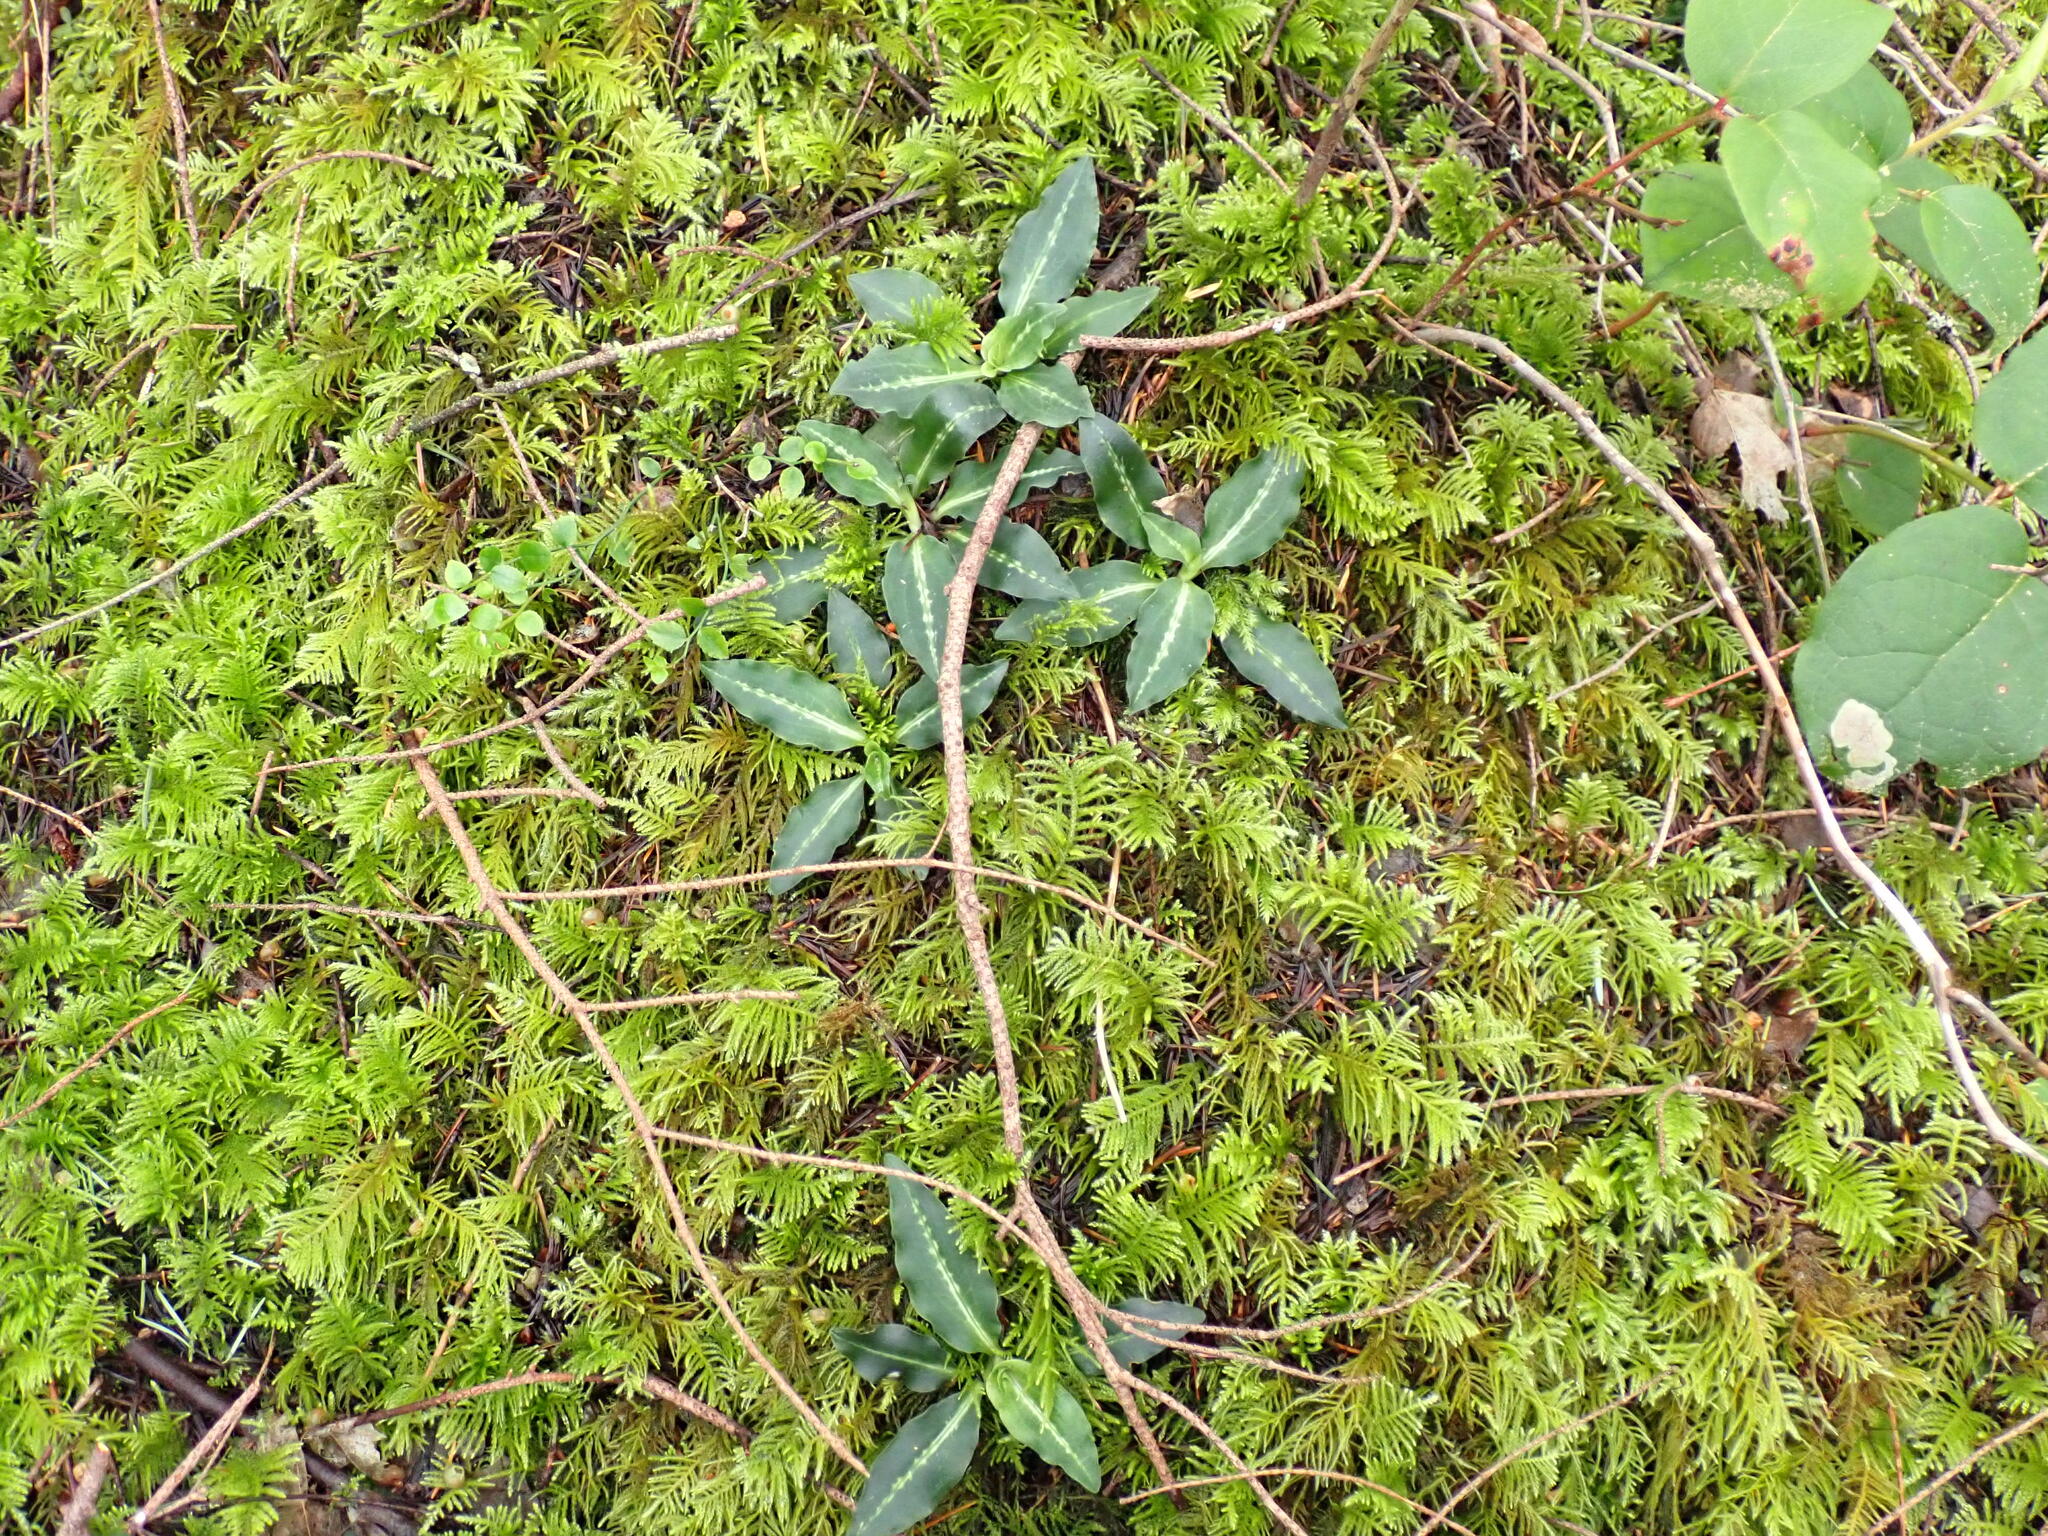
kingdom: Plantae
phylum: Tracheophyta
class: Liliopsida
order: Asparagales
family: Orchidaceae
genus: Goodyera
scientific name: Goodyera oblongifolia
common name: Giant rattlesnake-plantain
